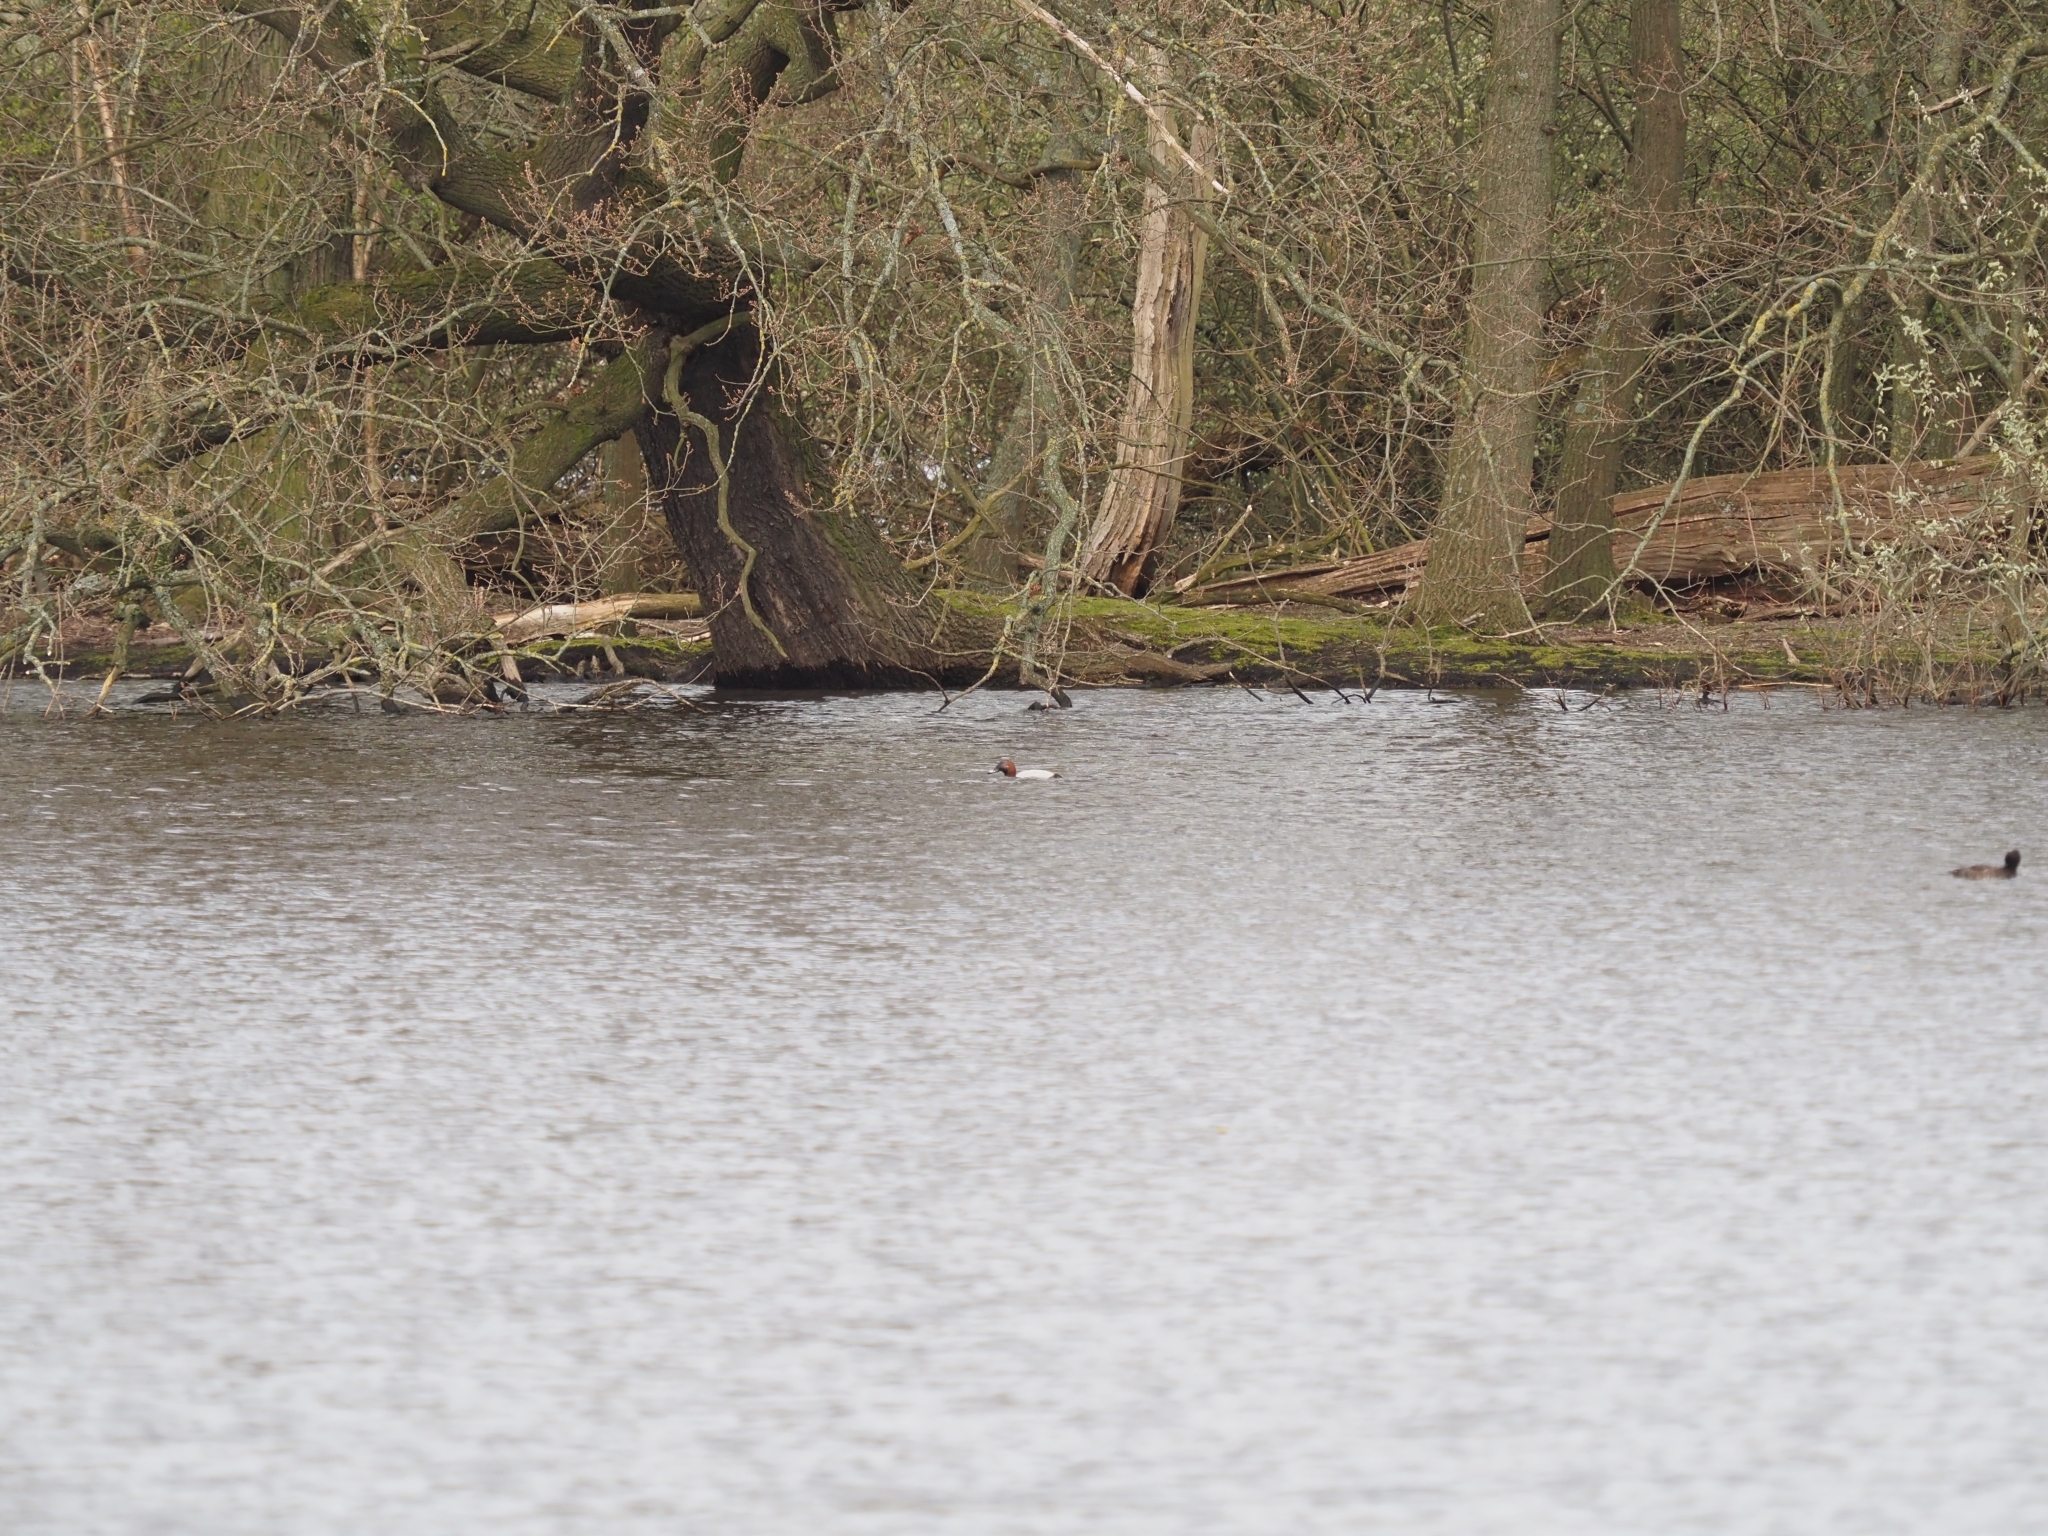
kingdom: Animalia
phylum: Chordata
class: Aves
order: Anseriformes
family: Anatidae
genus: Aythya
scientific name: Aythya ferina
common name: Common pochard
